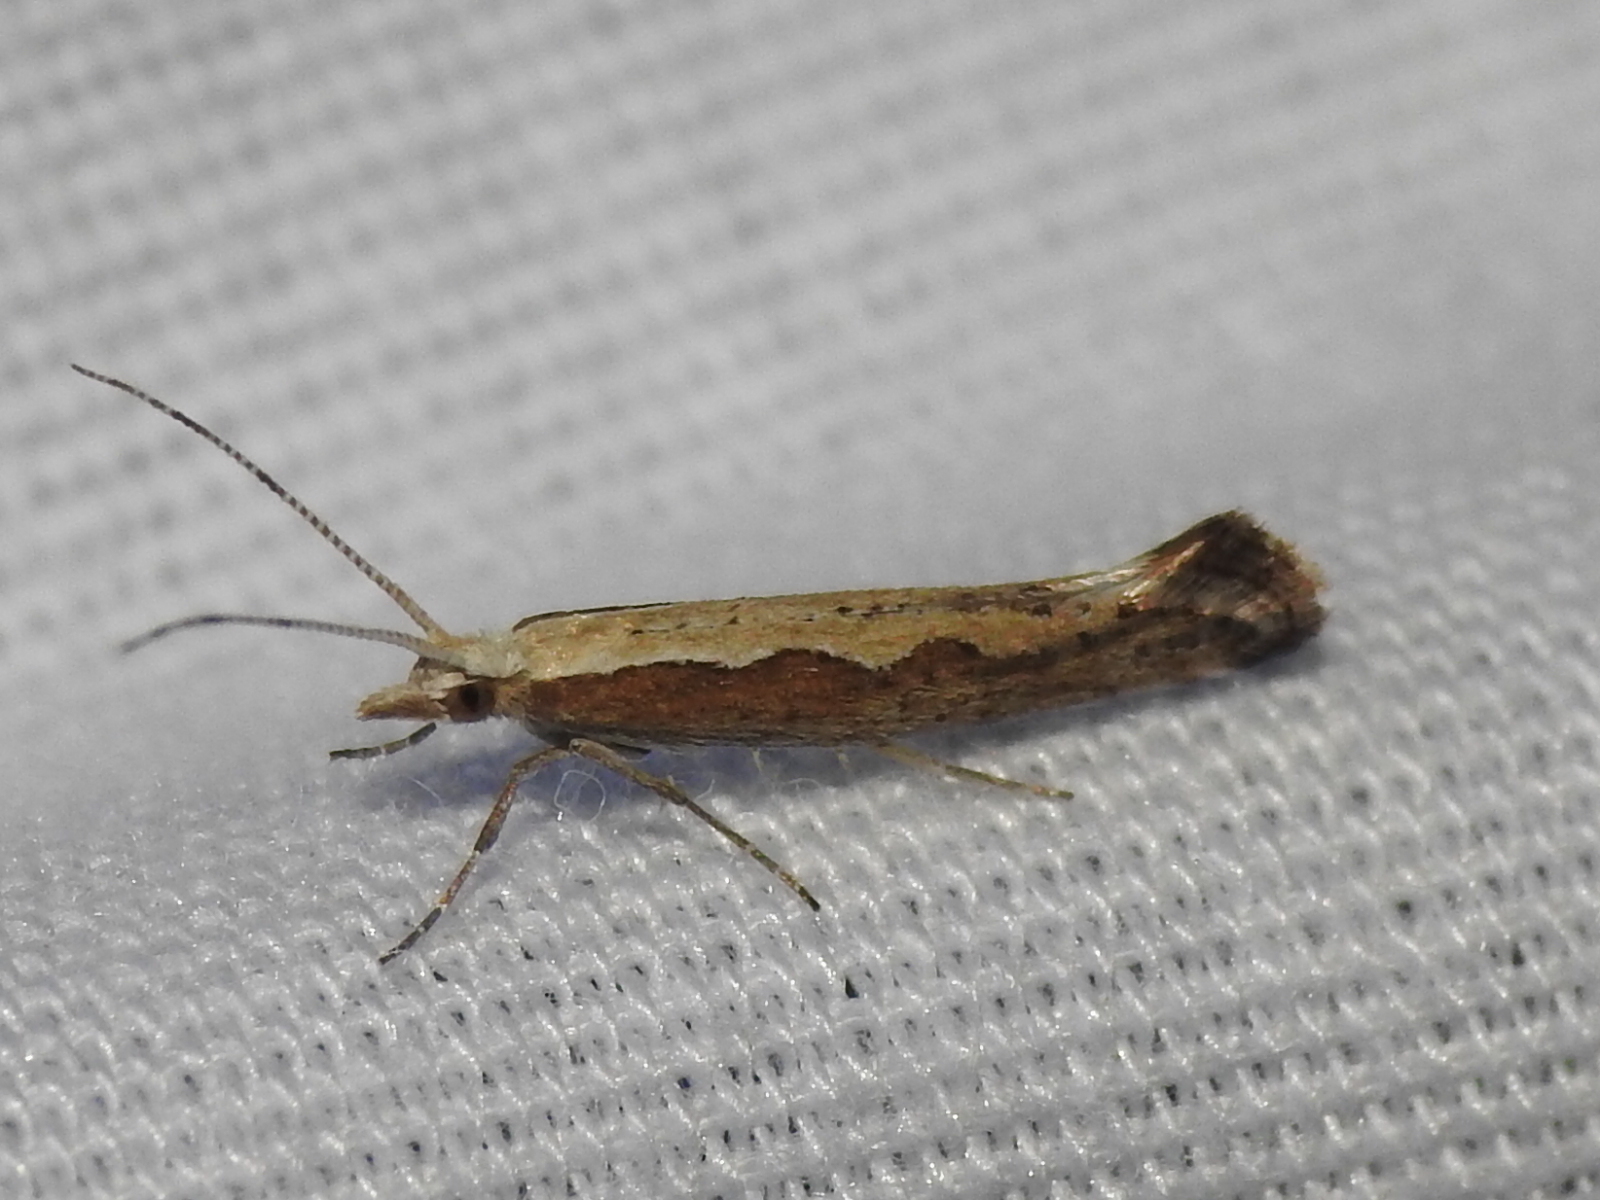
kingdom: Animalia
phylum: Arthropoda
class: Insecta
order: Lepidoptera
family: Plutellidae
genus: Plutella
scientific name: Plutella xylostella
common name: Diamond-back moth
